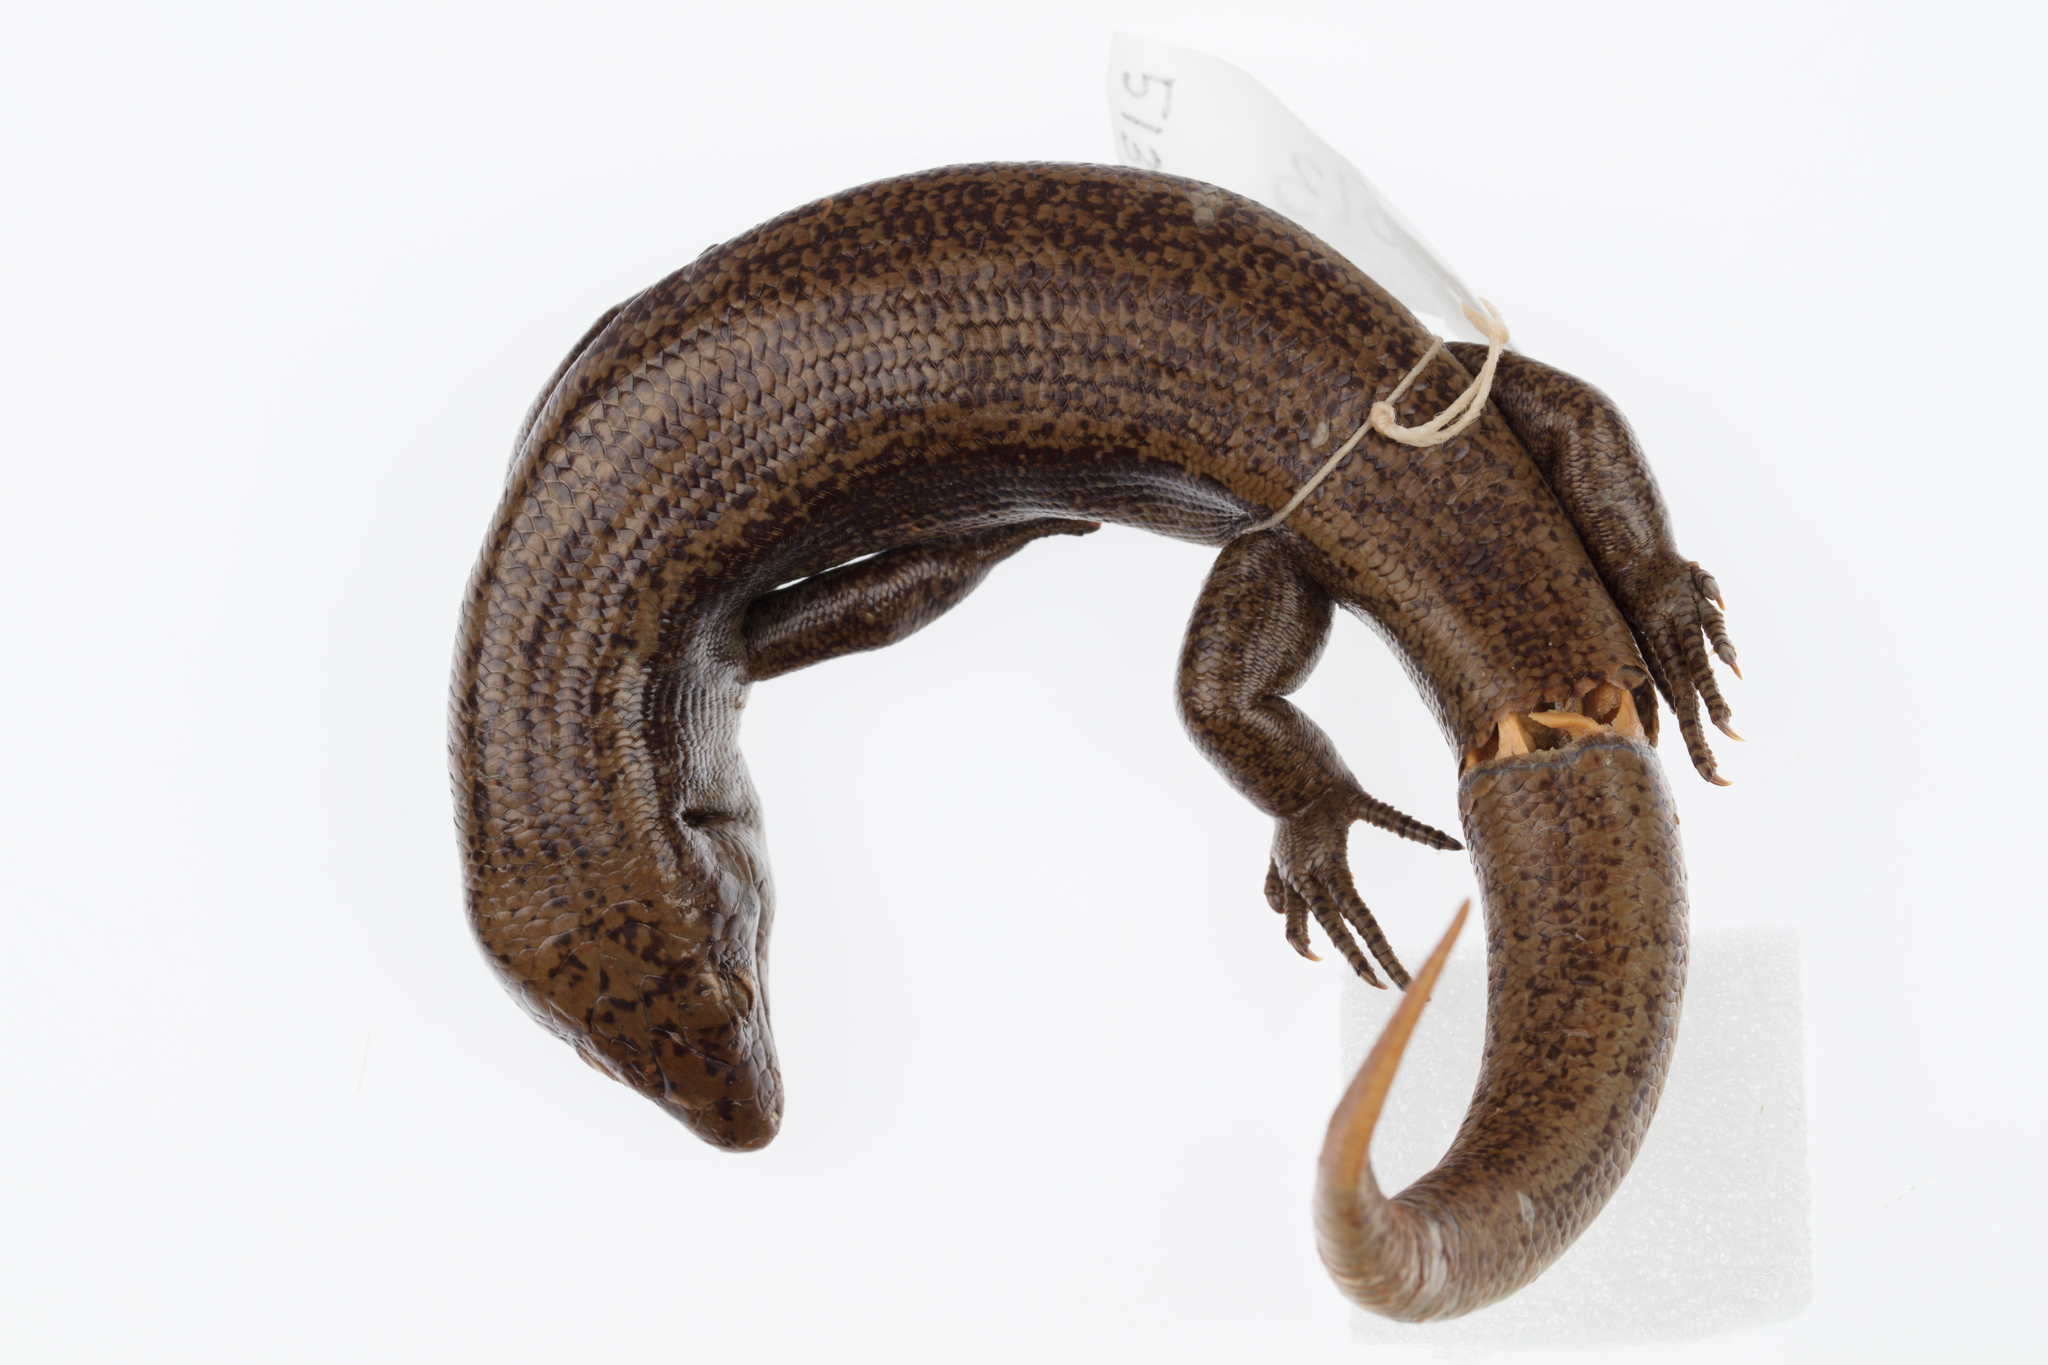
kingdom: Animalia
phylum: Chordata
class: Squamata
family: Scincidae
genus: Oligosoma
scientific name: Oligosoma fallai
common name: Falla's skink
